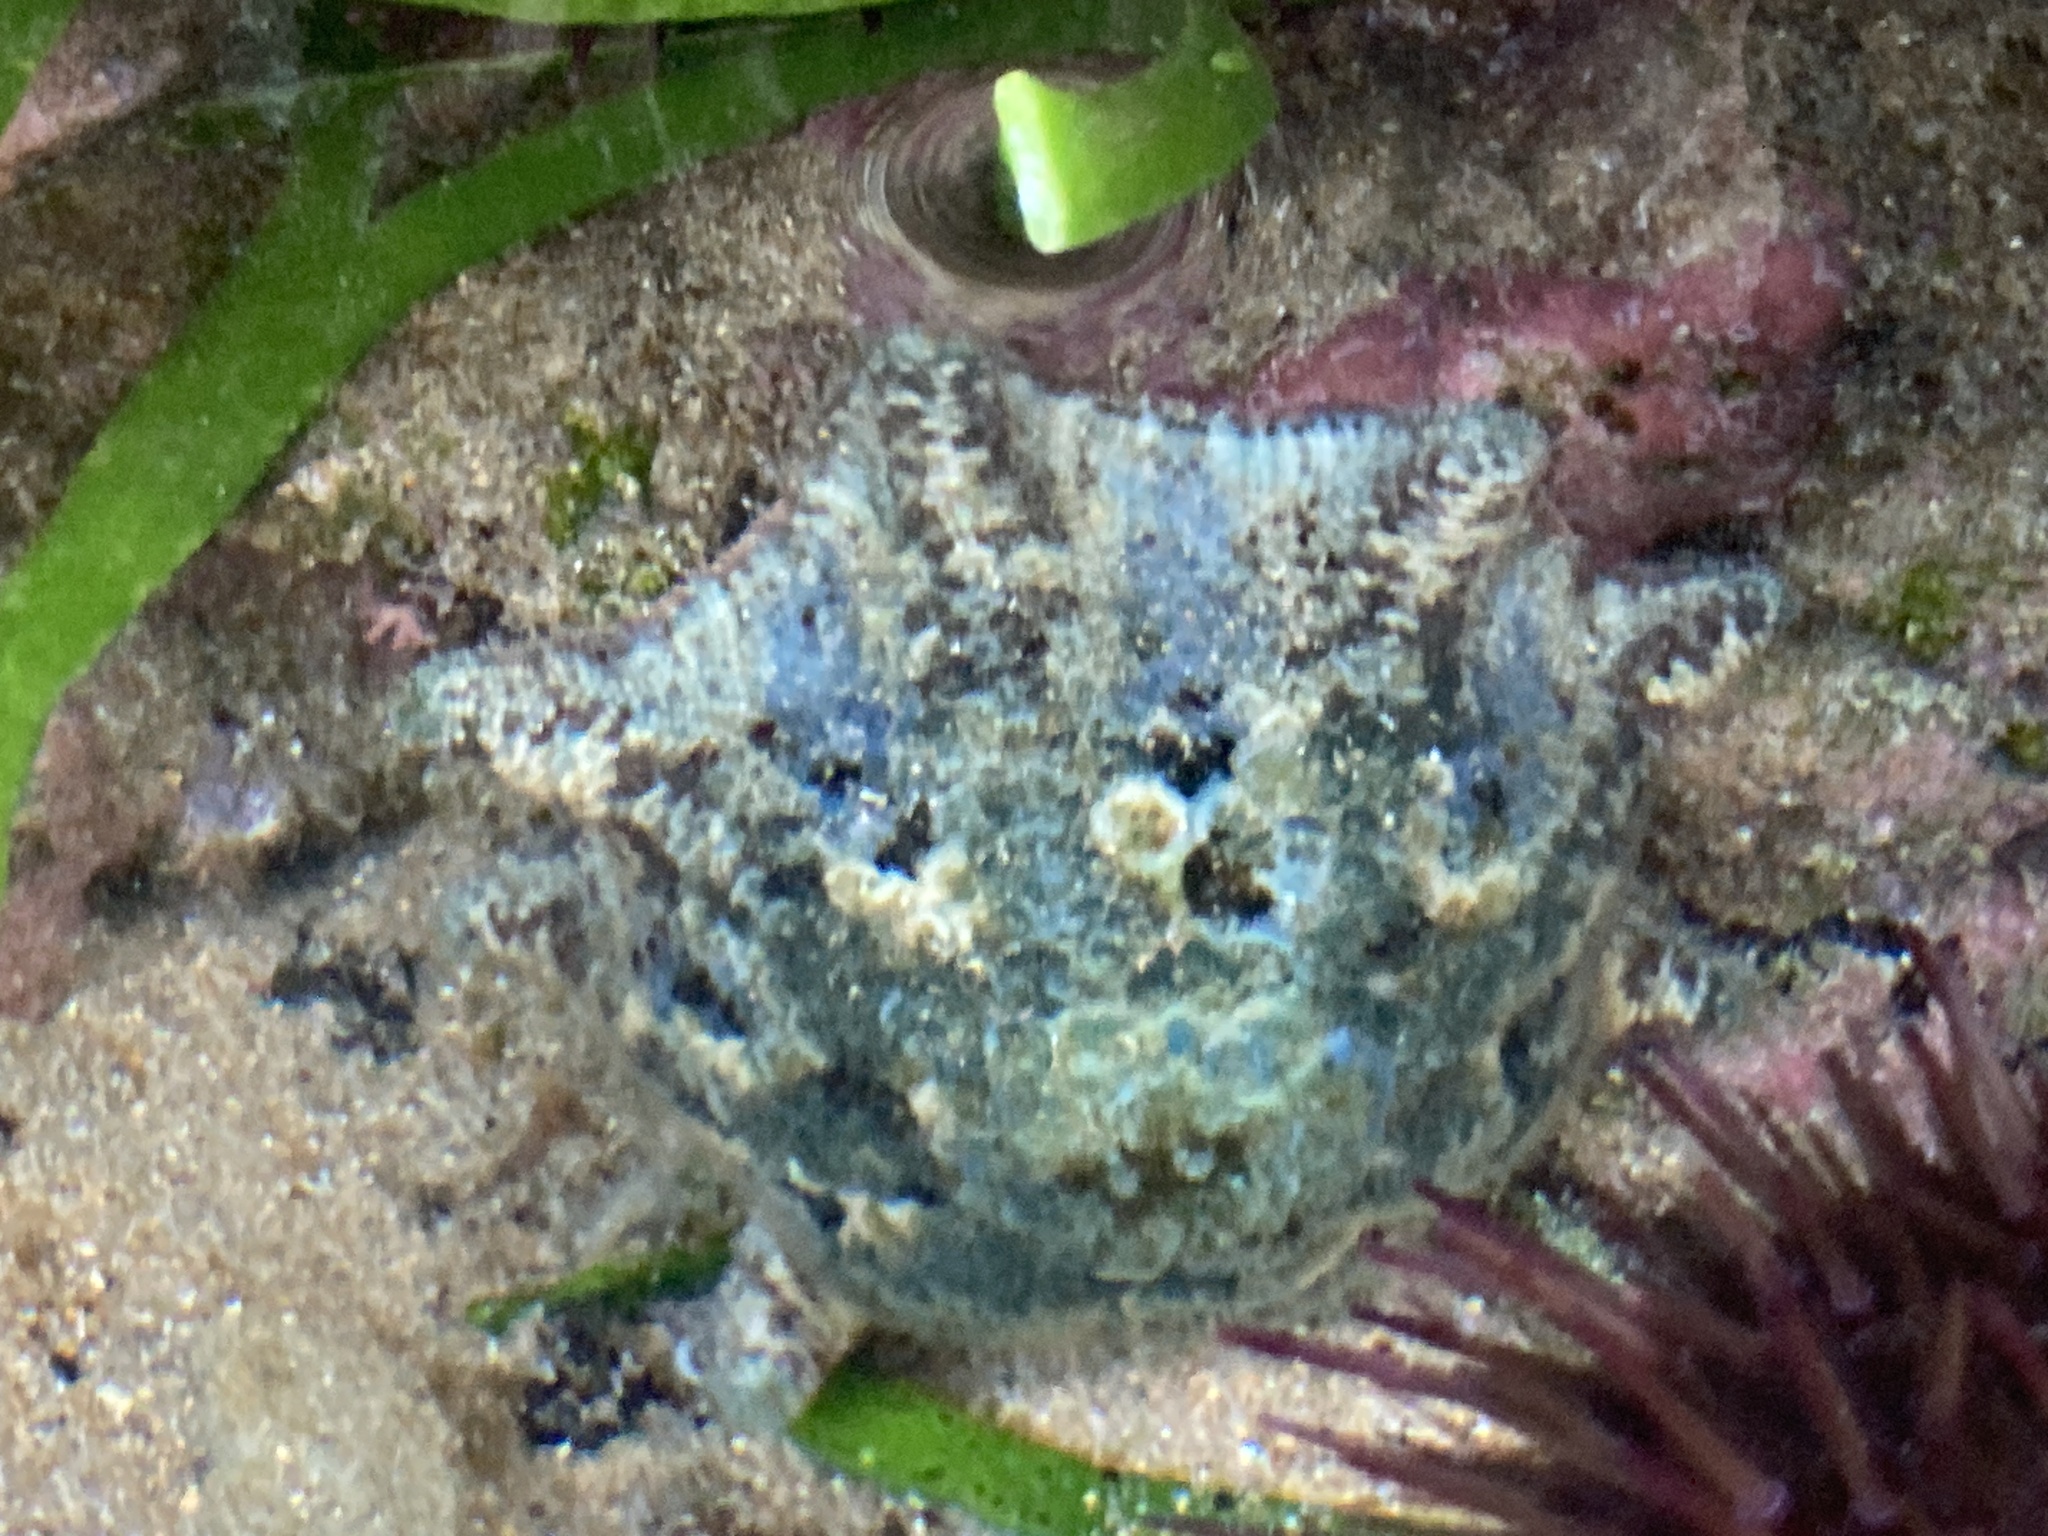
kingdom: Animalia
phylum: Echinodermata
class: Asteroidea
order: Valvatida
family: Asterinidae
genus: Meridiastra
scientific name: Meridiastra calcar
